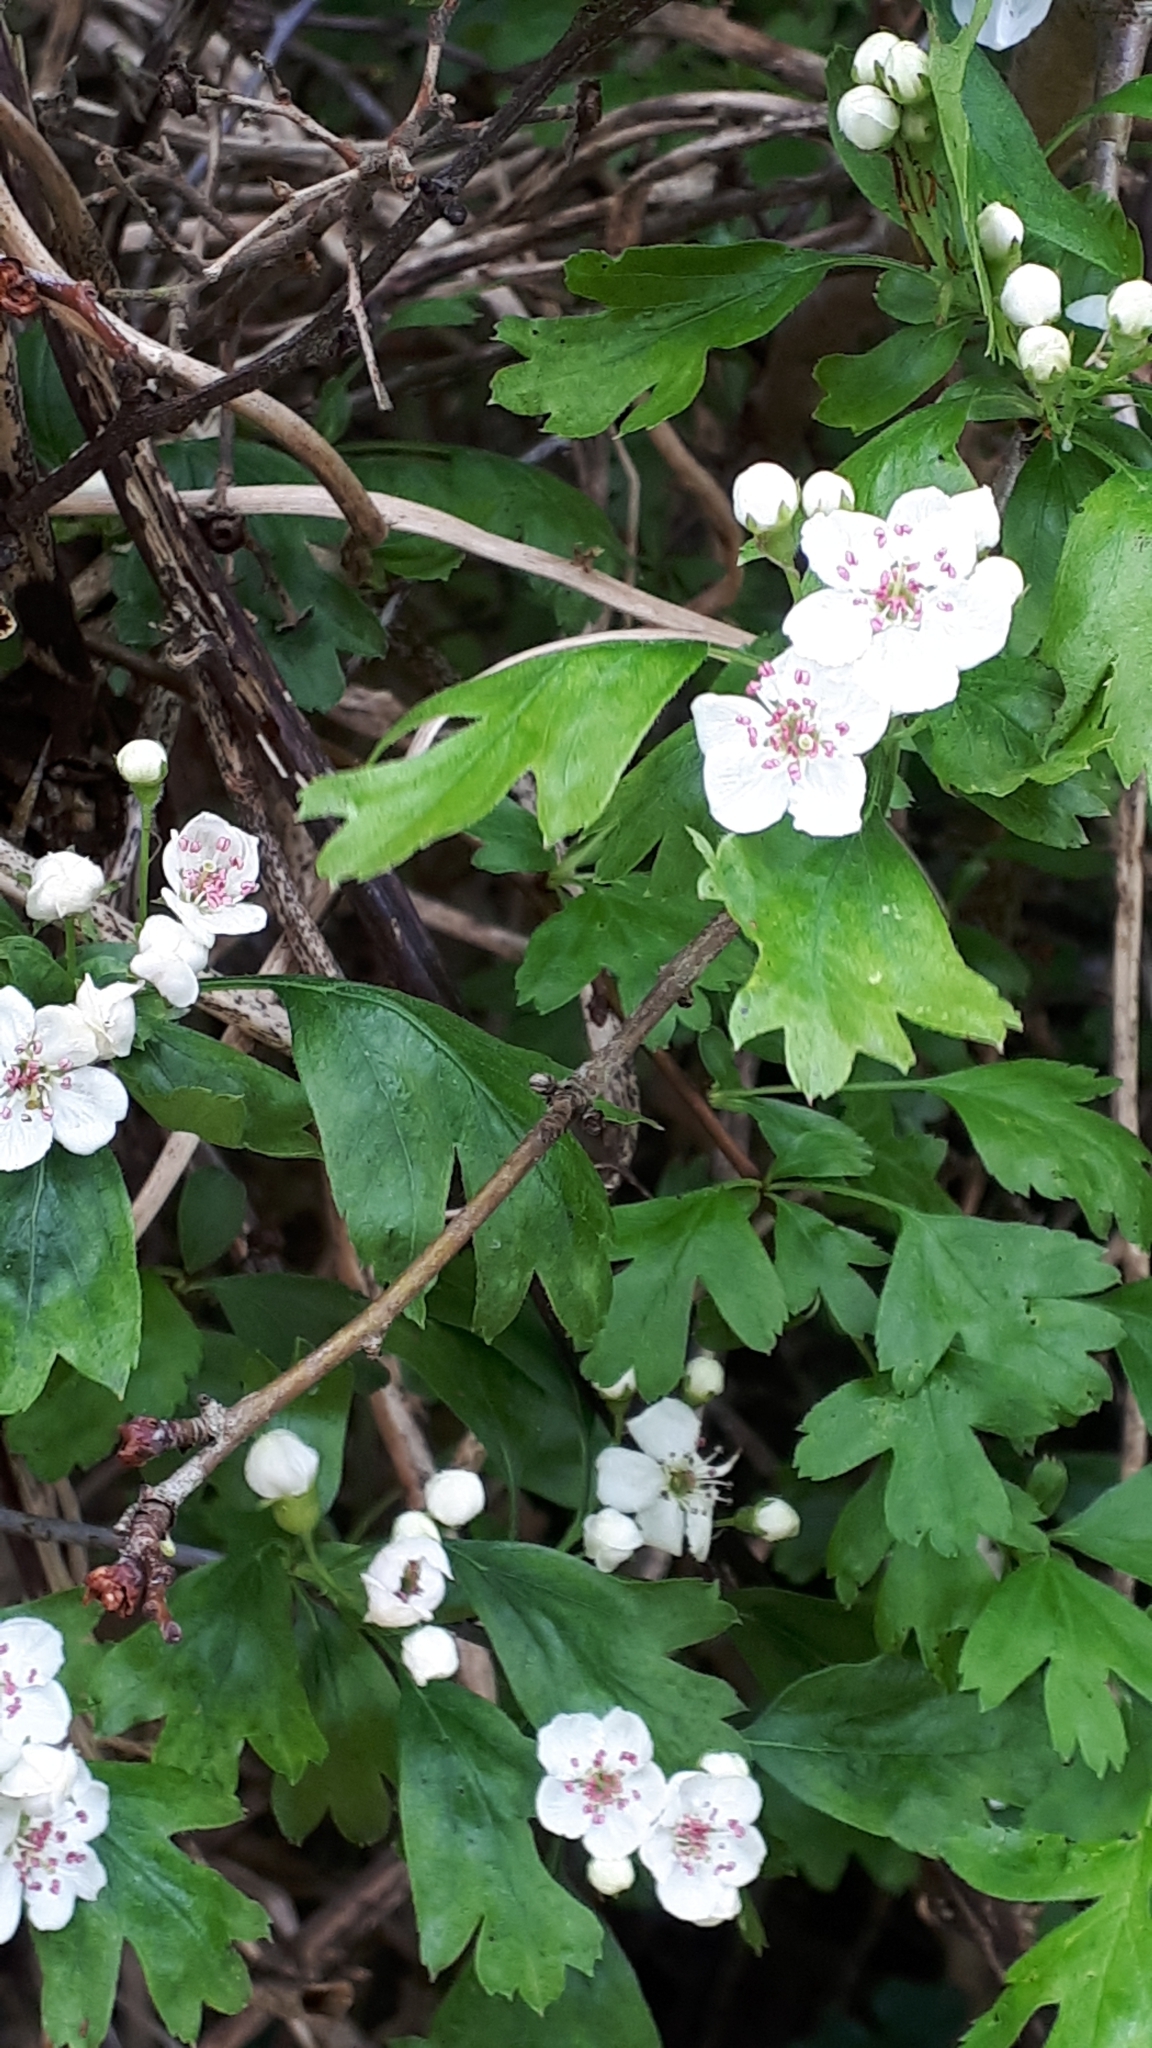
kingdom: Plantae
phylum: Tracheophyta
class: Magnoliopsida
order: Rosales
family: Rosaceae
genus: Crataegus
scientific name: Crataegus monogyna
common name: Hawthorn
